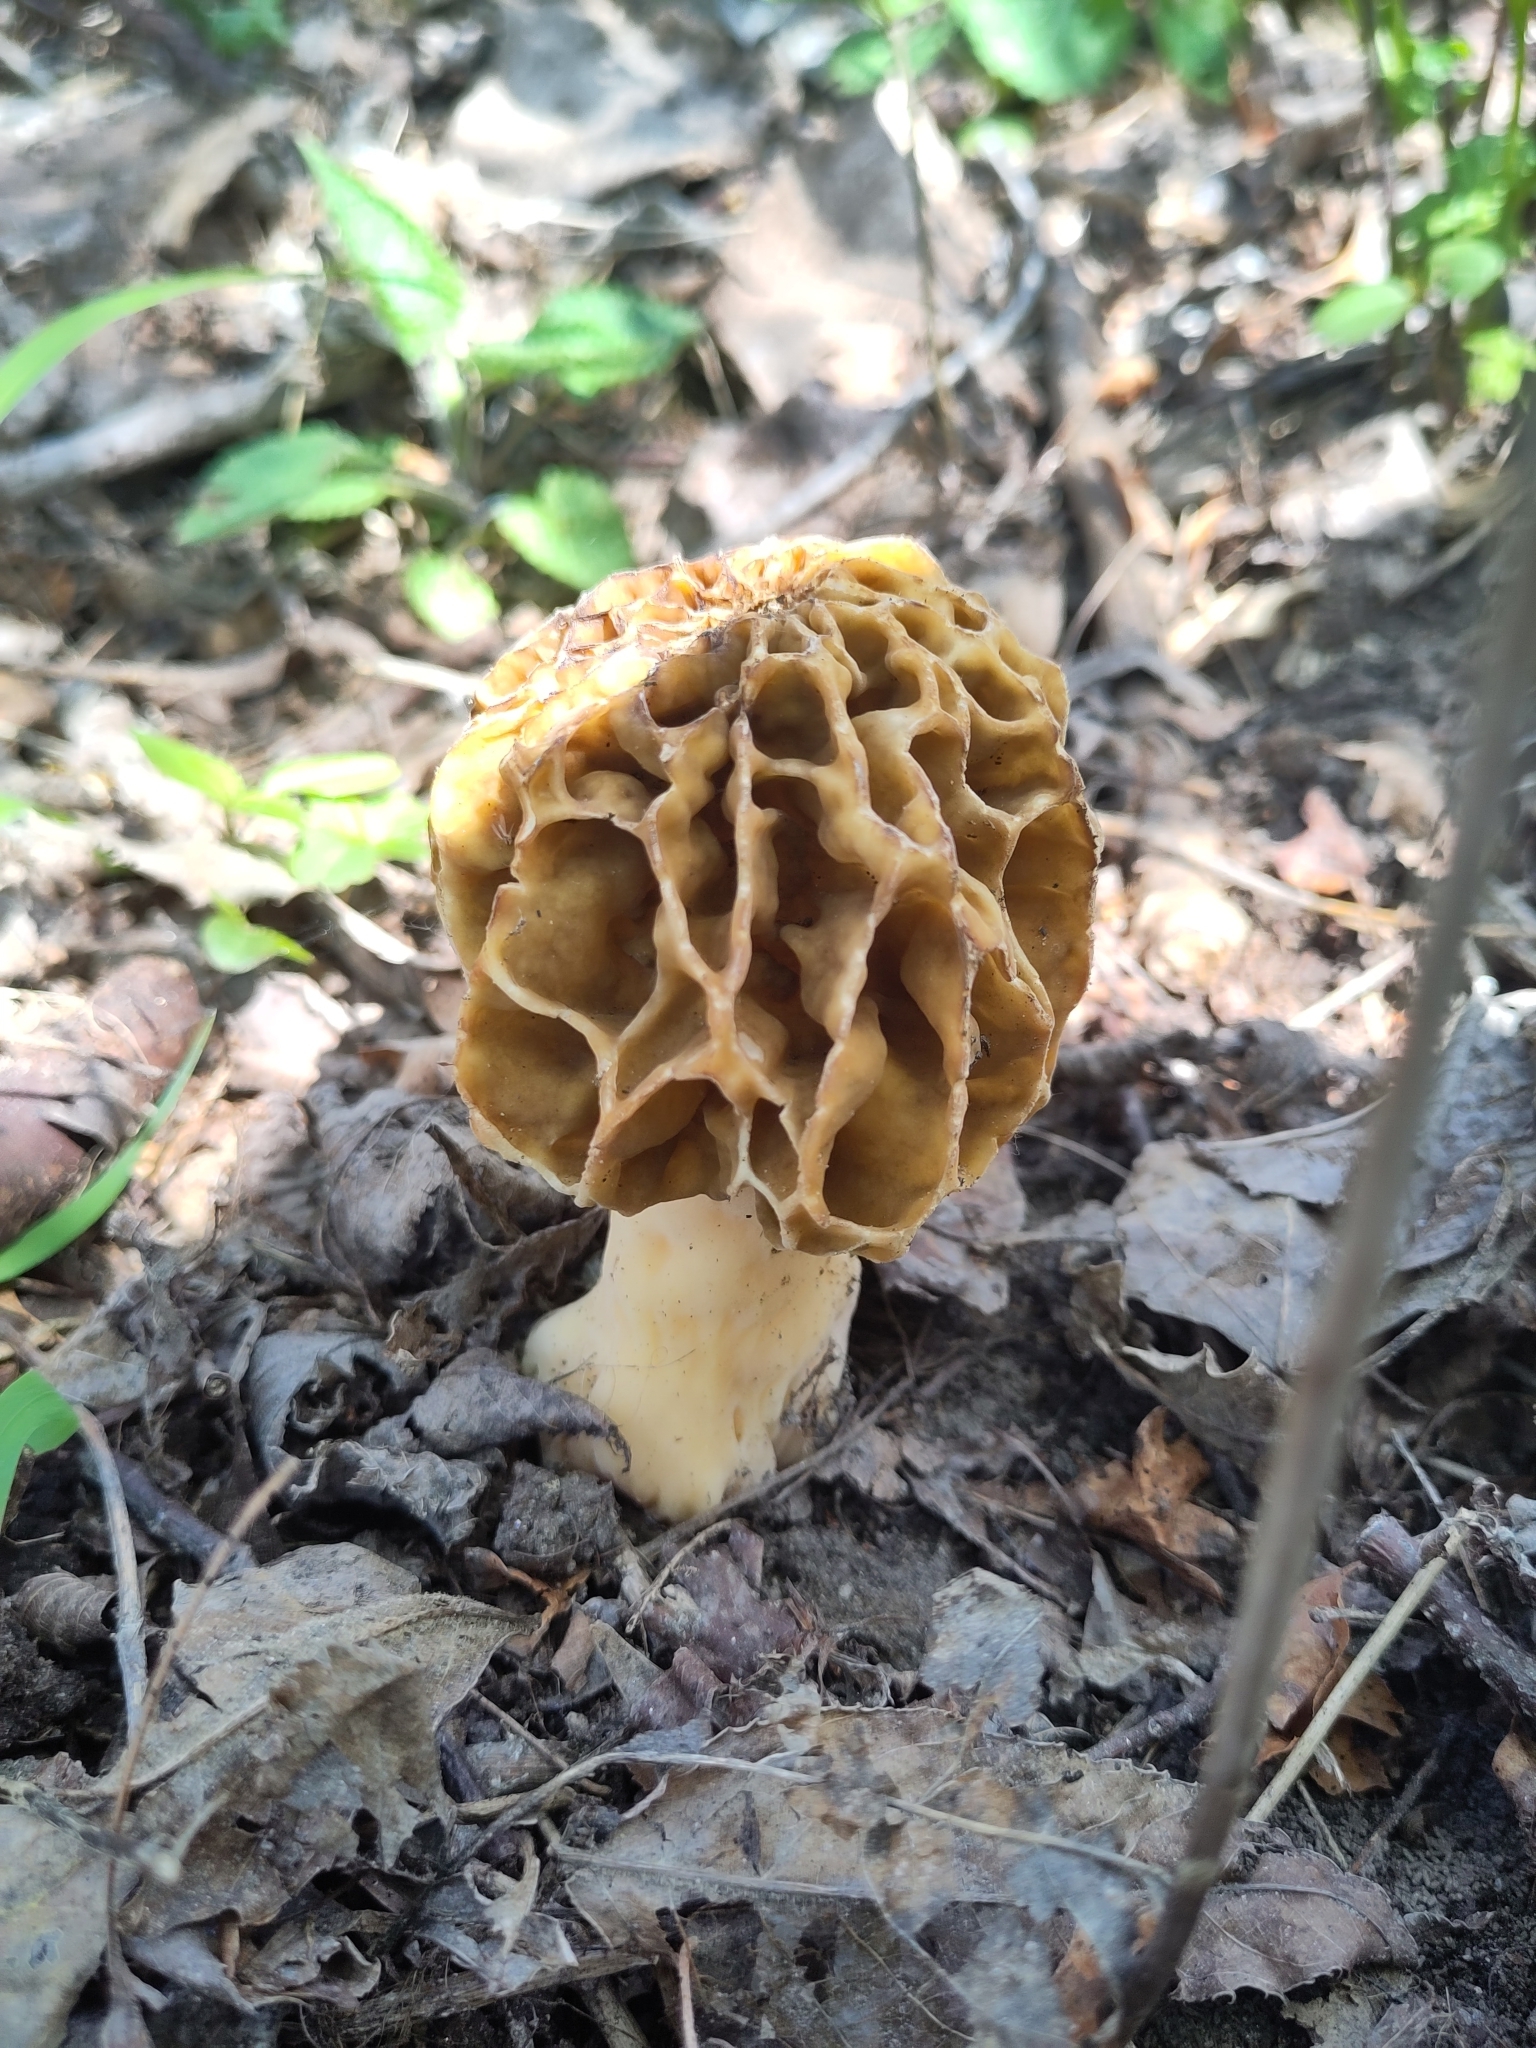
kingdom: Fungi
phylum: Ascomycota
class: Pezizomycetes
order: Pezizales
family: Morchellaceae
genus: Morchella
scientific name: Morchella esculenta
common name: Morel
